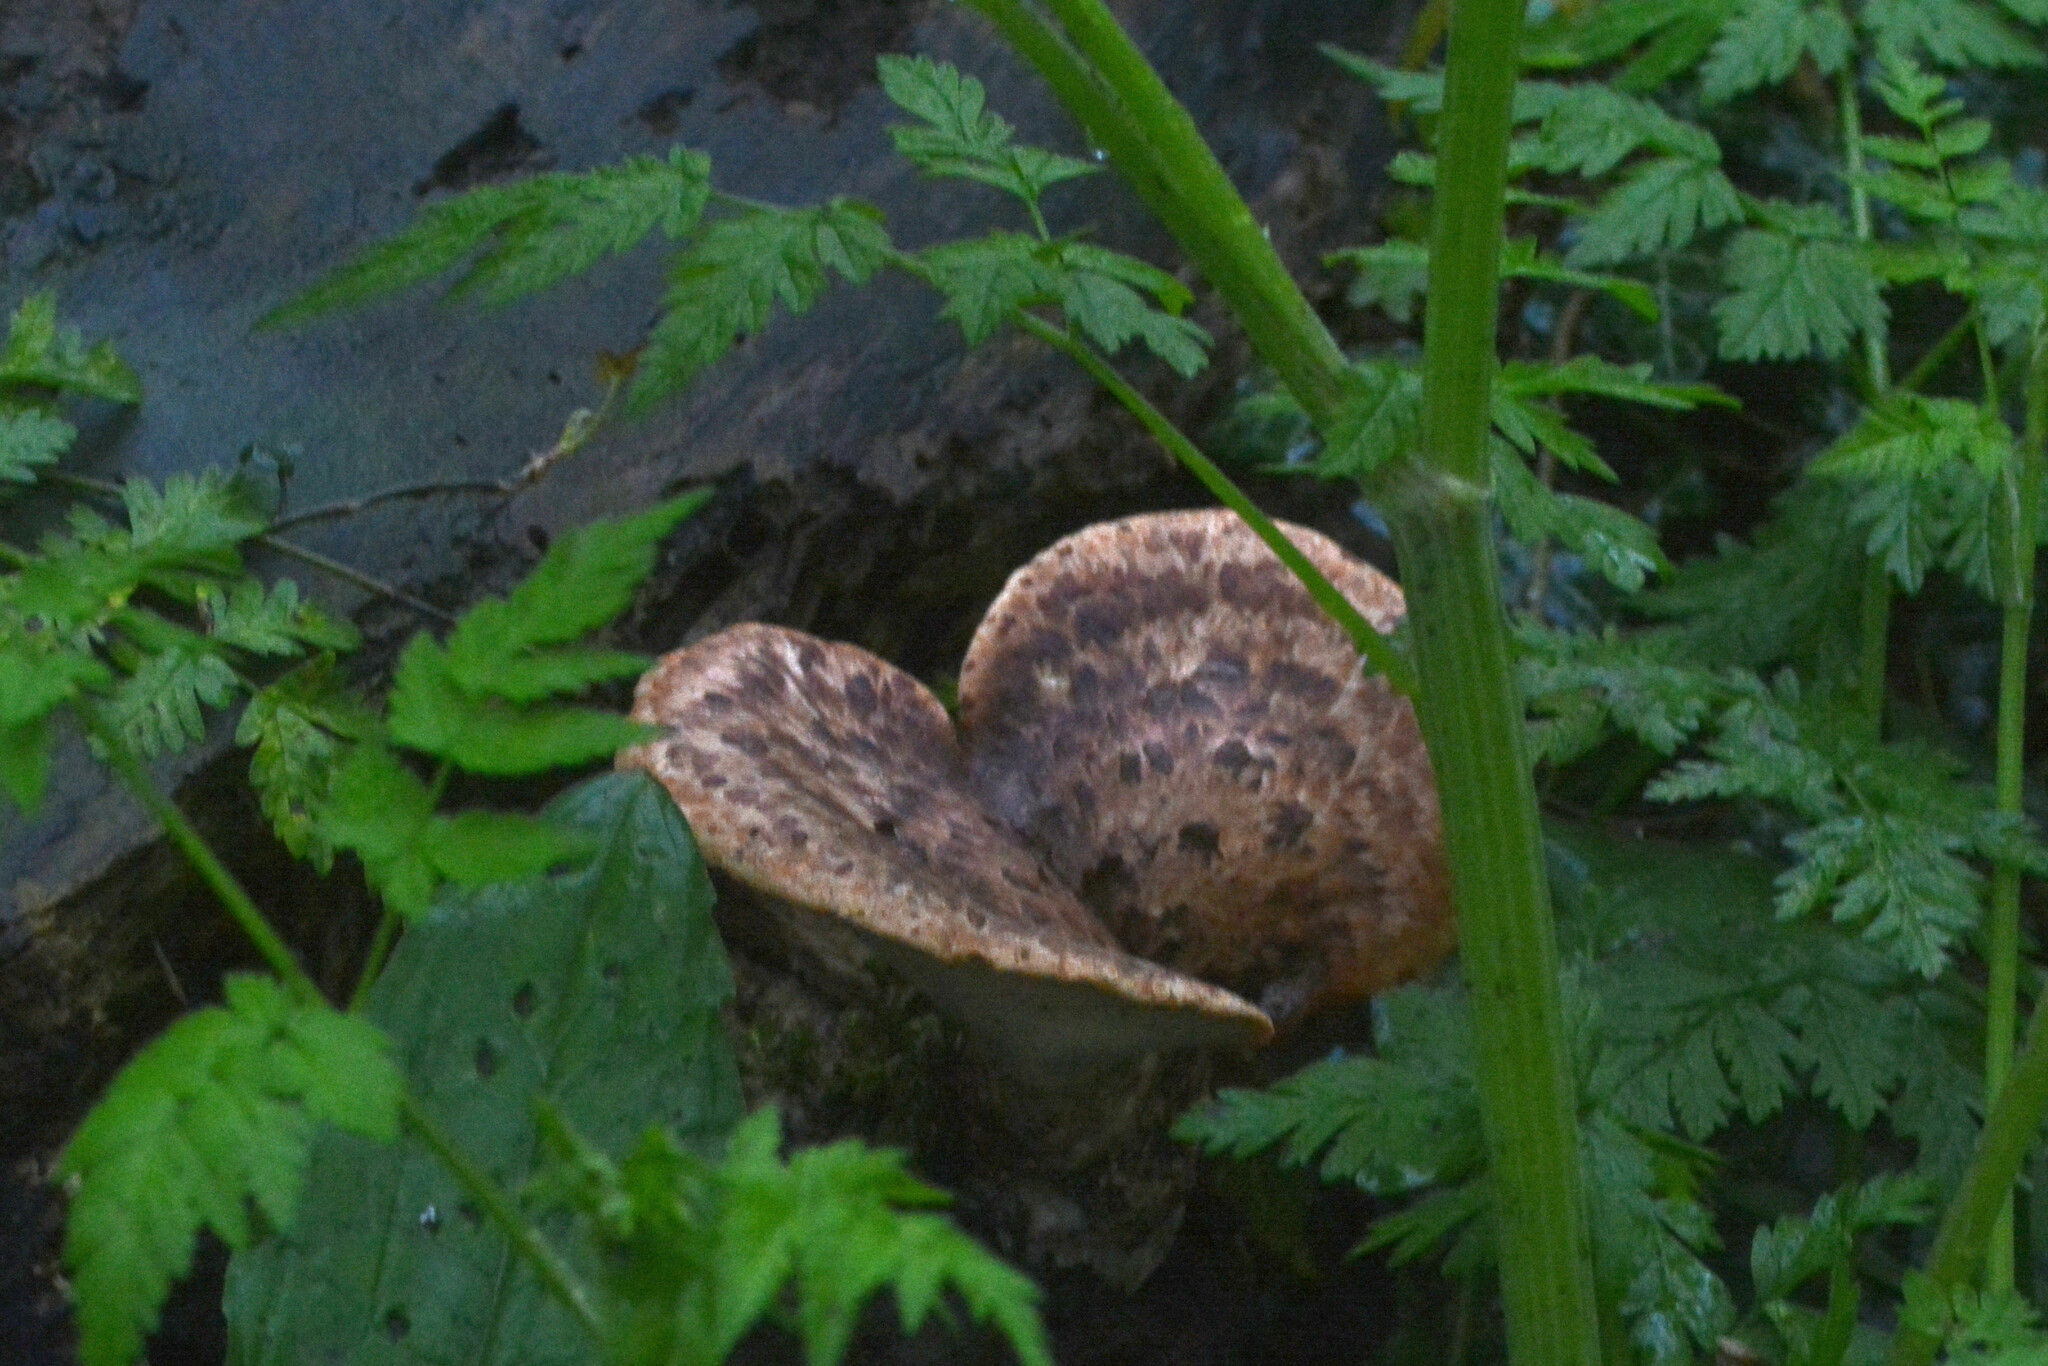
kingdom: Fungi
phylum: Basidiomycota
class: Agaricomycetes
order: Polyporales
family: Polyporaceae
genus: Cerioporus
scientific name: Cerioporus squamosus
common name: Dryad's saddle
